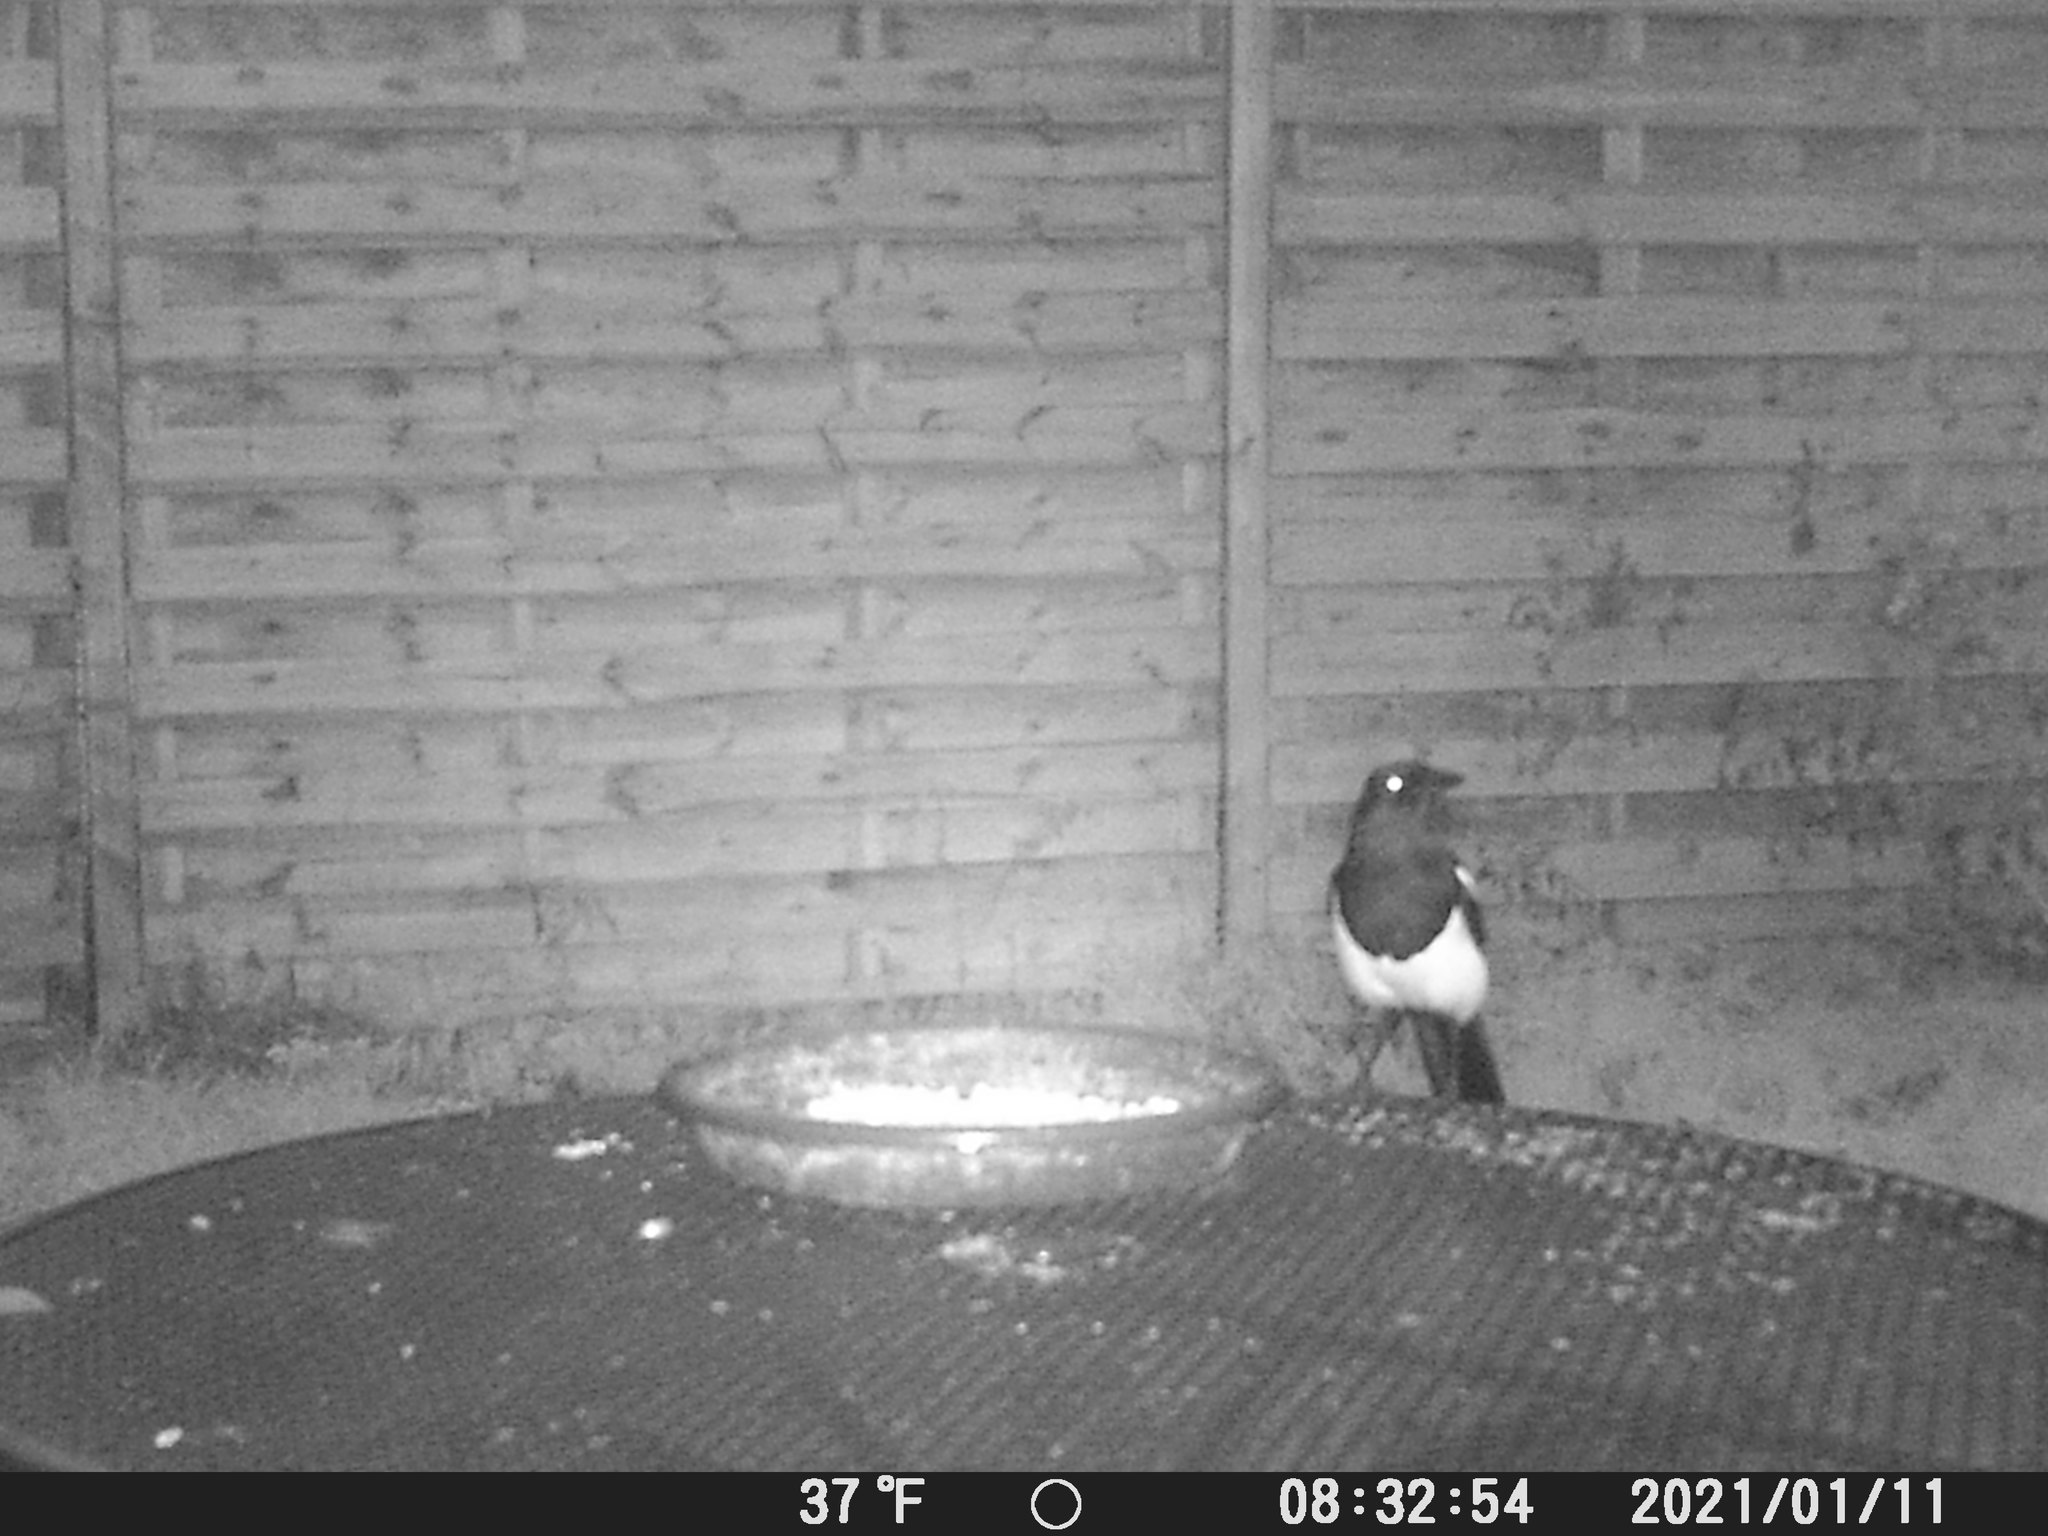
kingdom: Animalia
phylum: Chordata
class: Aves
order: Passeriformes
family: Corvidae
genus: Pica
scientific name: Pica pica
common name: Eurasian magpie
